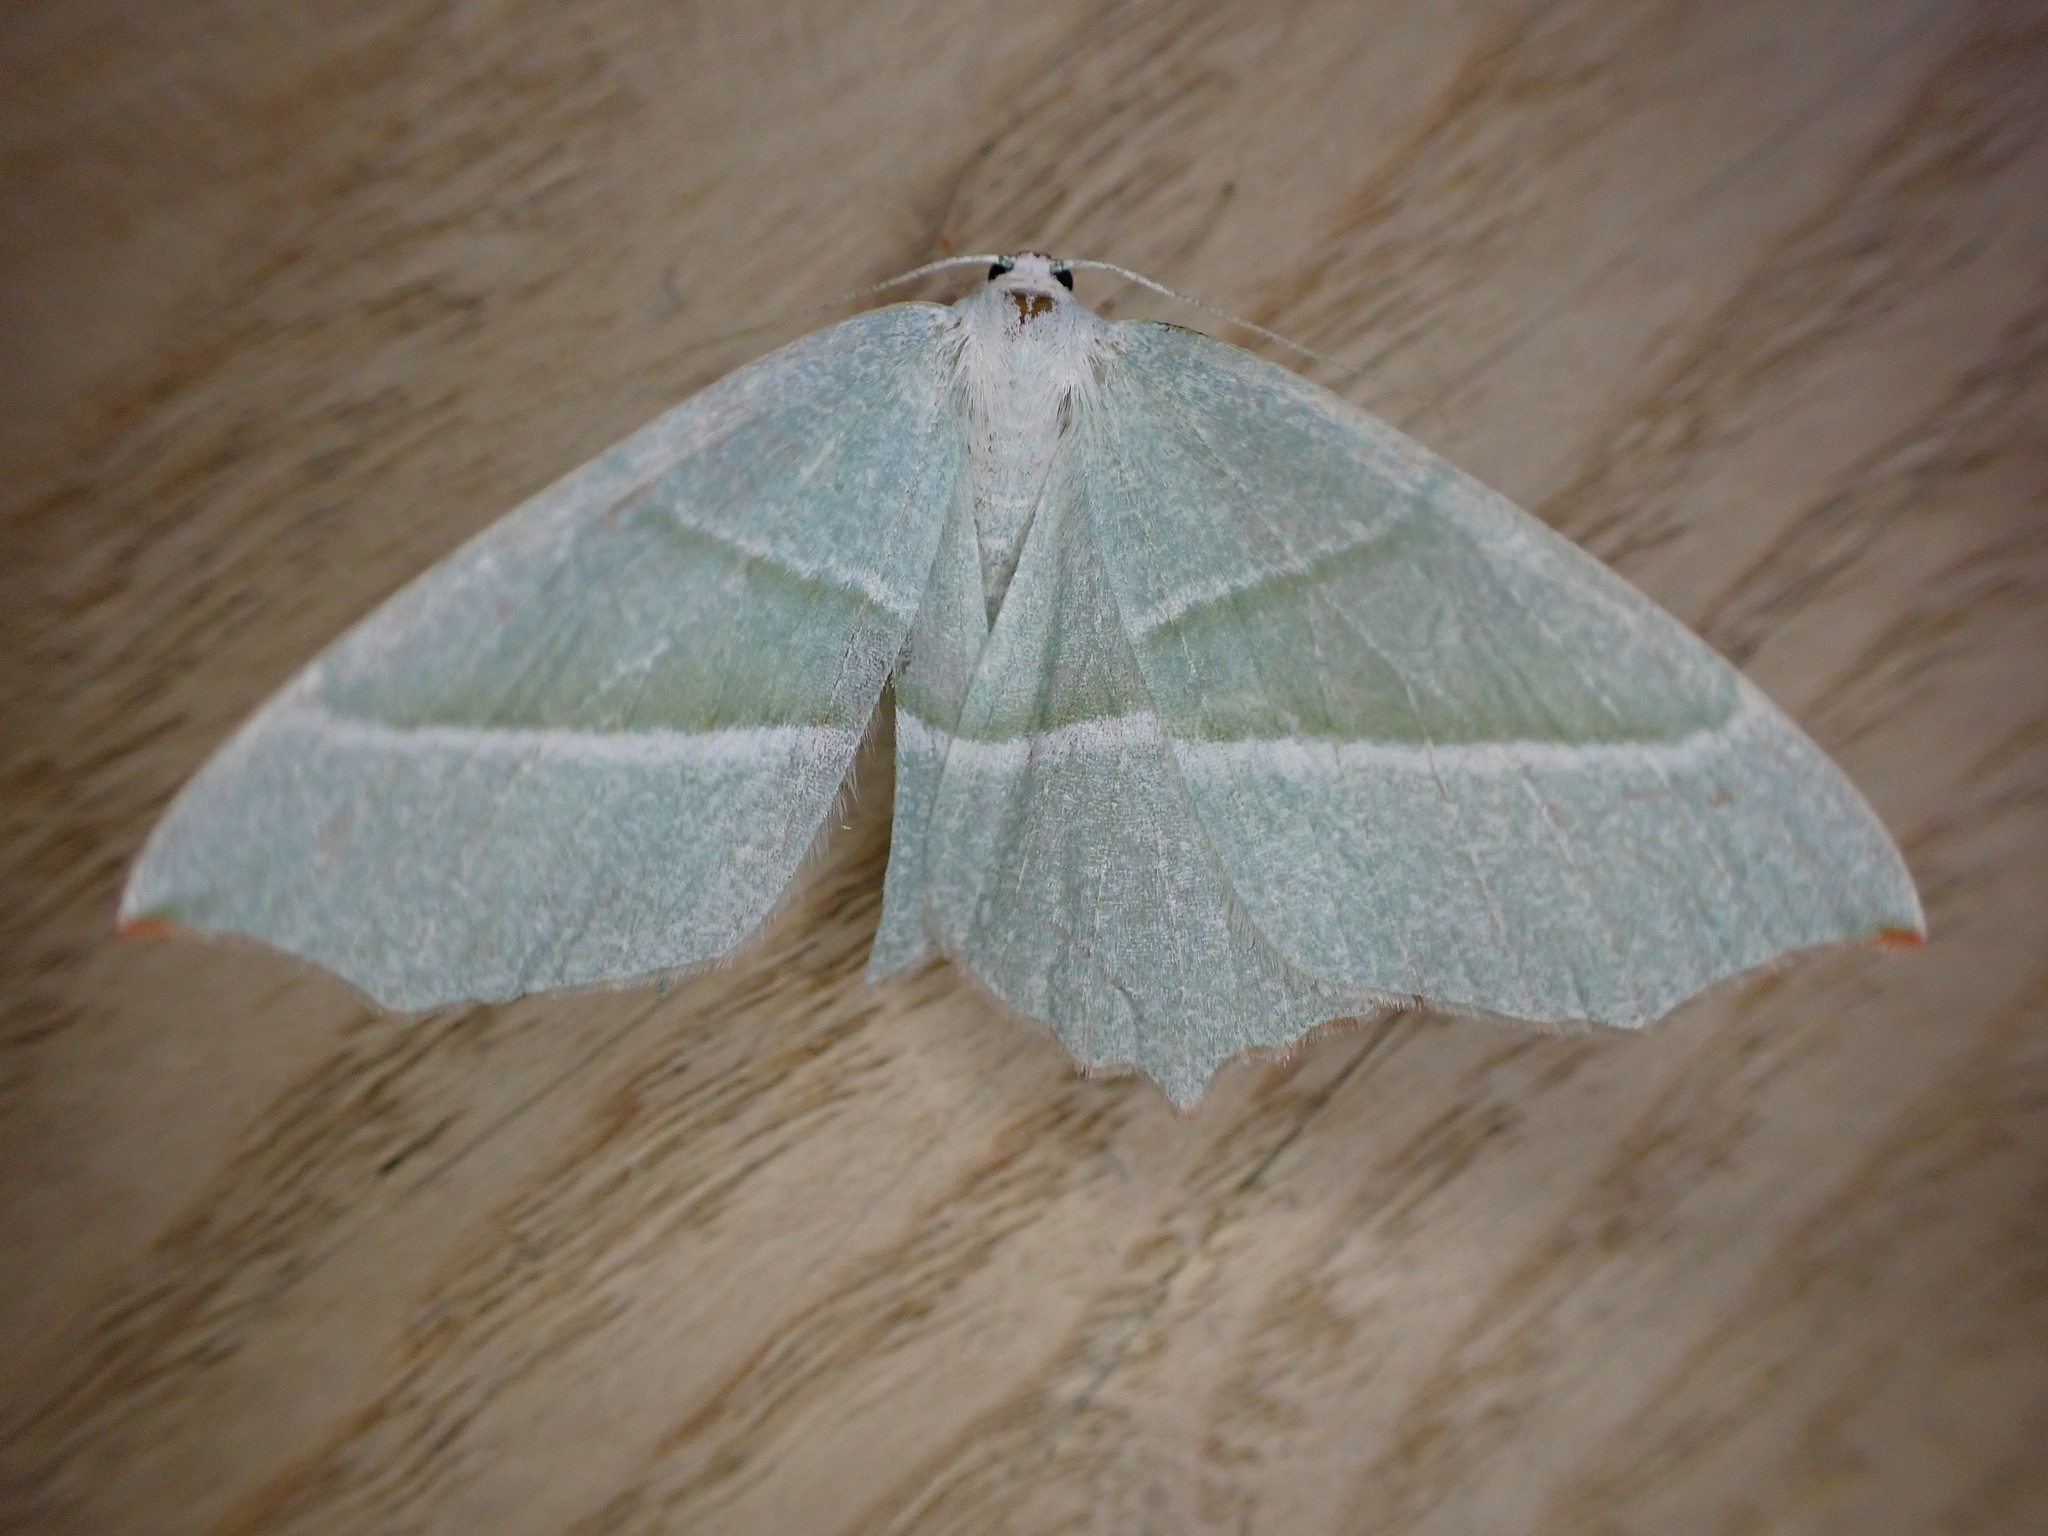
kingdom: Animalia
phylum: Arthropoda
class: Insecta
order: Lepidoptera
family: Geometridae
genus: Campaea
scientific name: Campaea margaritaria
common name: Light emerald
